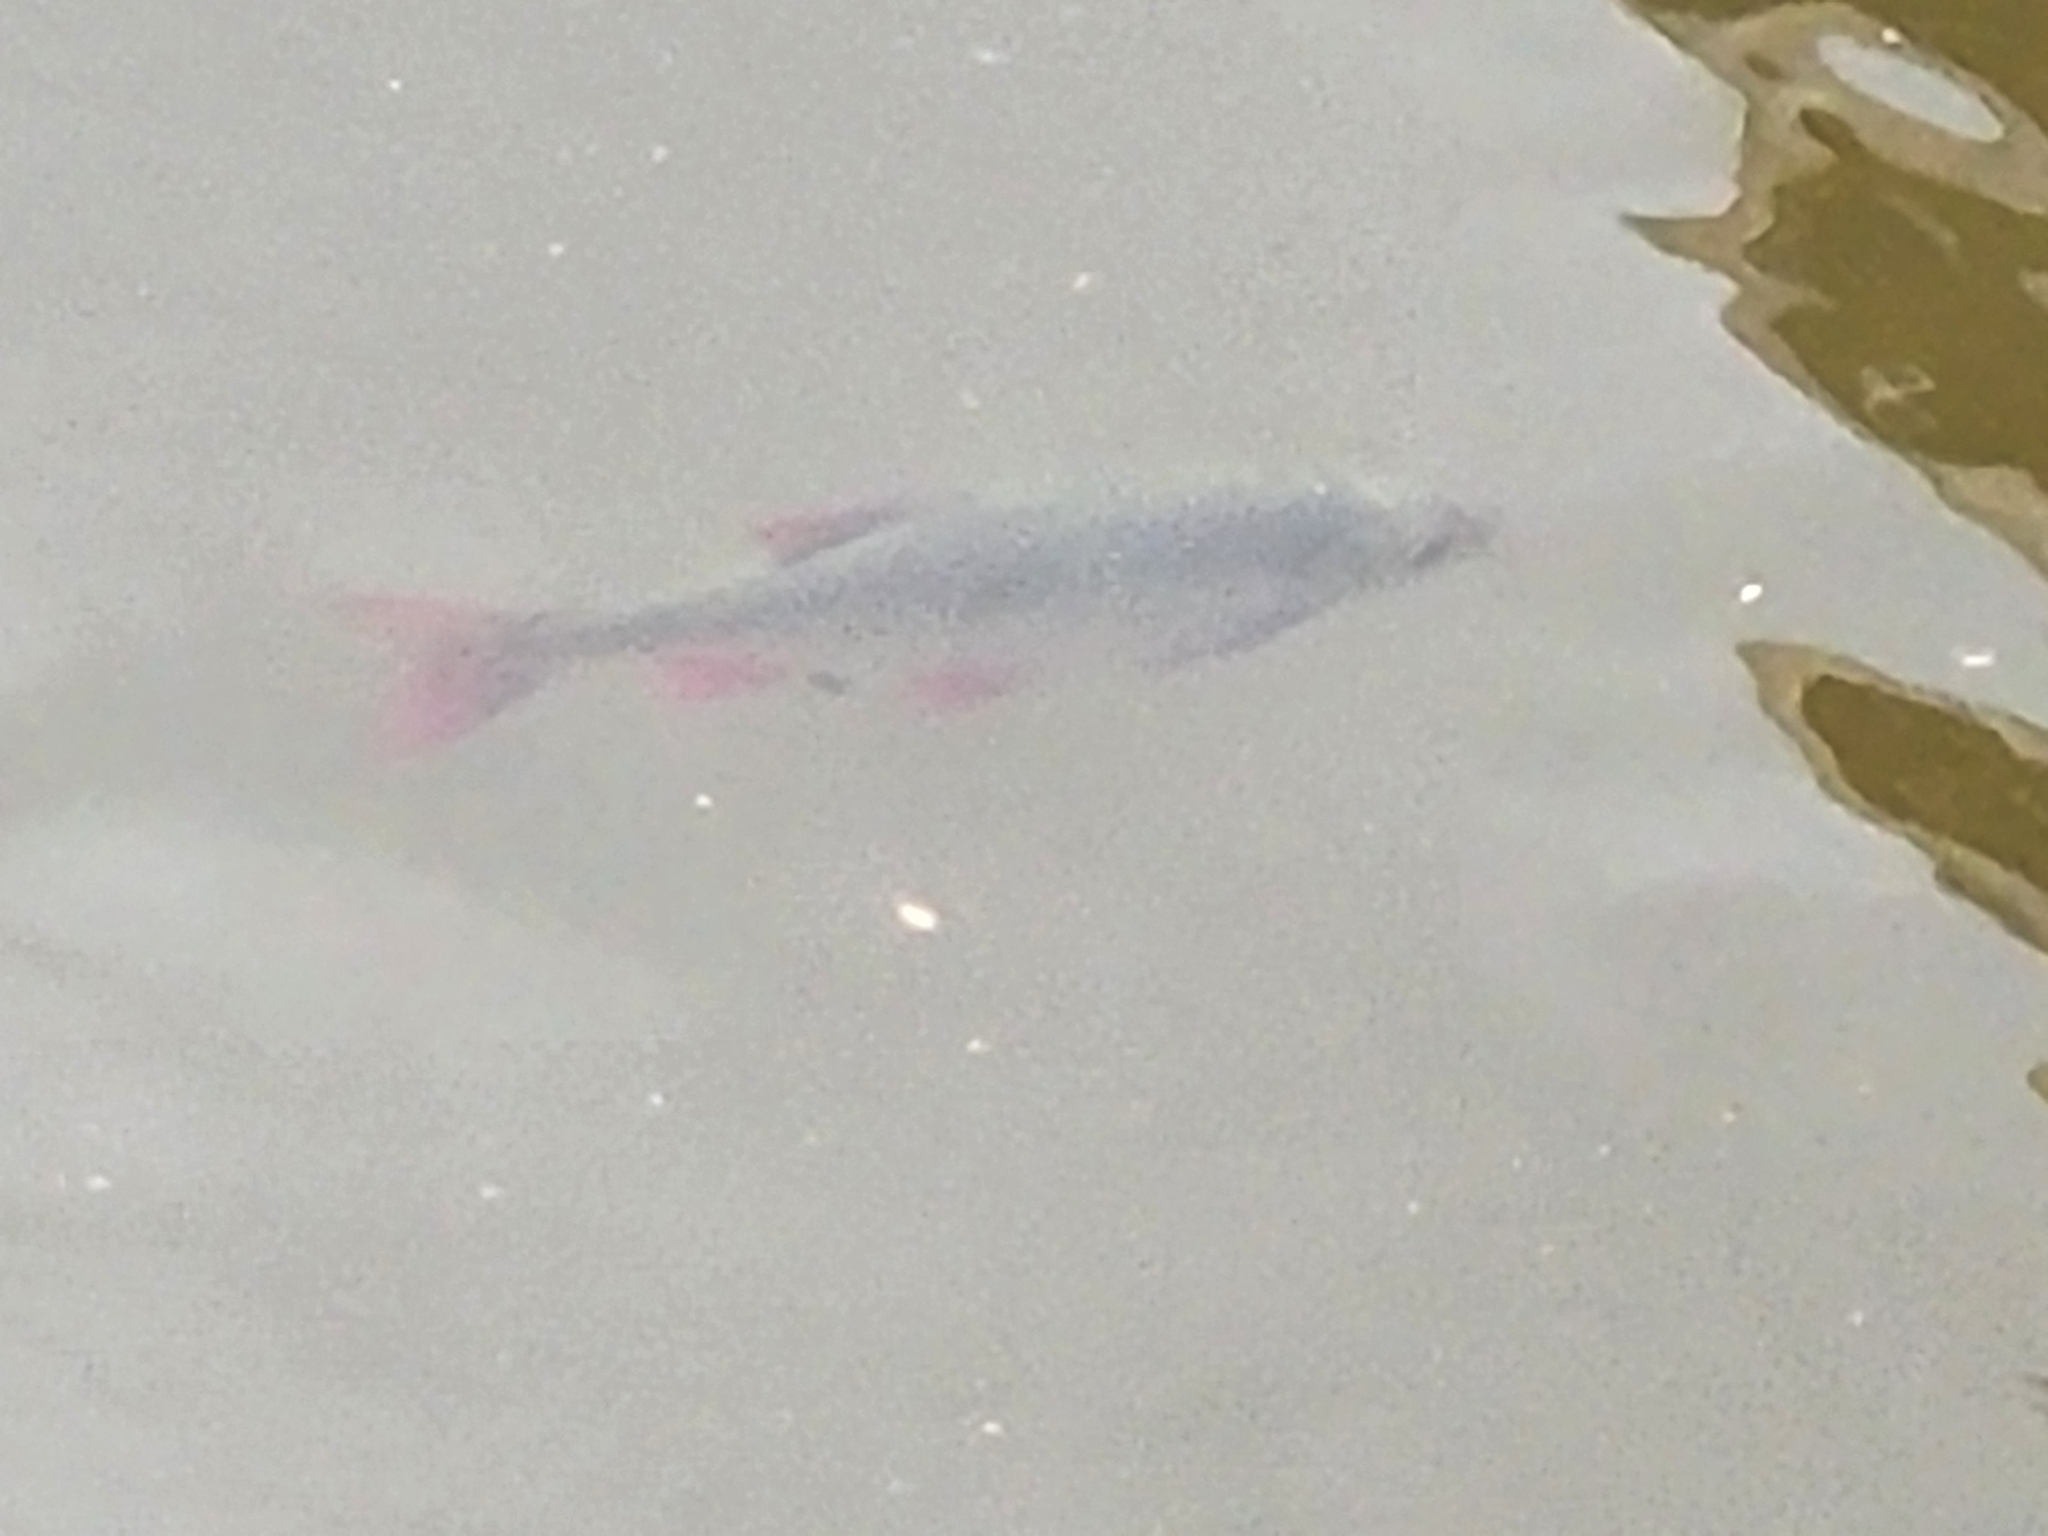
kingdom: Animalia
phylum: Chordata
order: Cypriniformes
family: Cyprinidae
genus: Scardinius
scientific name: Scardinius erythrophthalmus
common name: Rudd
